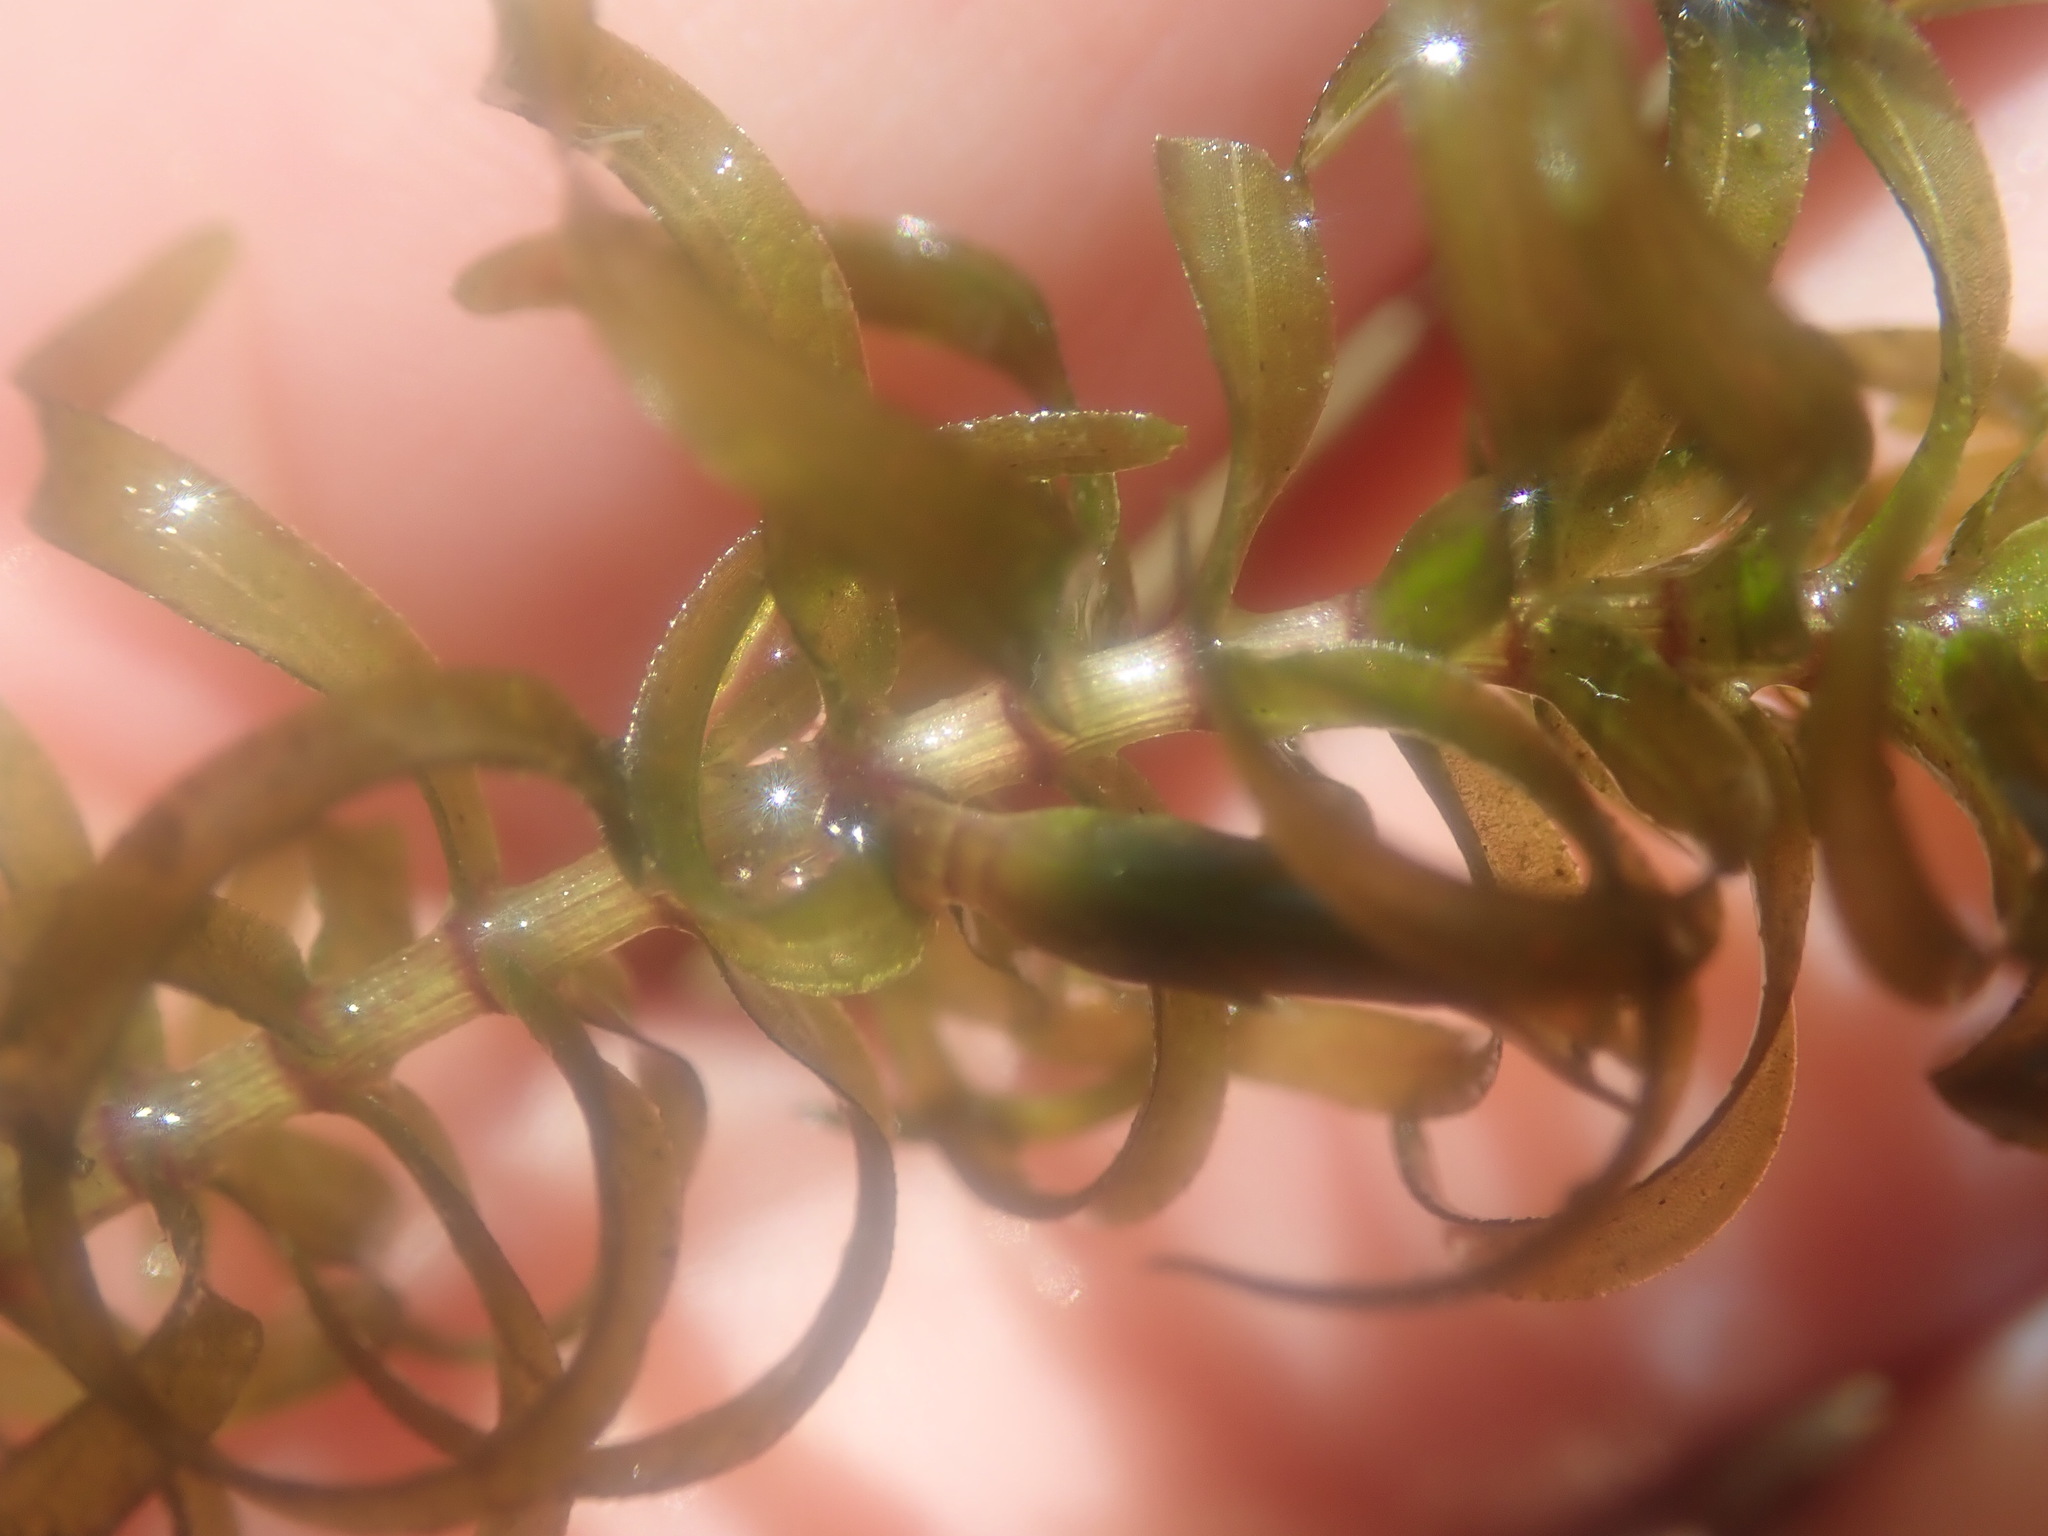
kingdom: Plantae
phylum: Tracheophyta
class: Liliopsida
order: Alismatales
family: Hydrocharitaceae
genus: Elodea
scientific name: Elodea nuttallii
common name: Nuttall's waterweed
